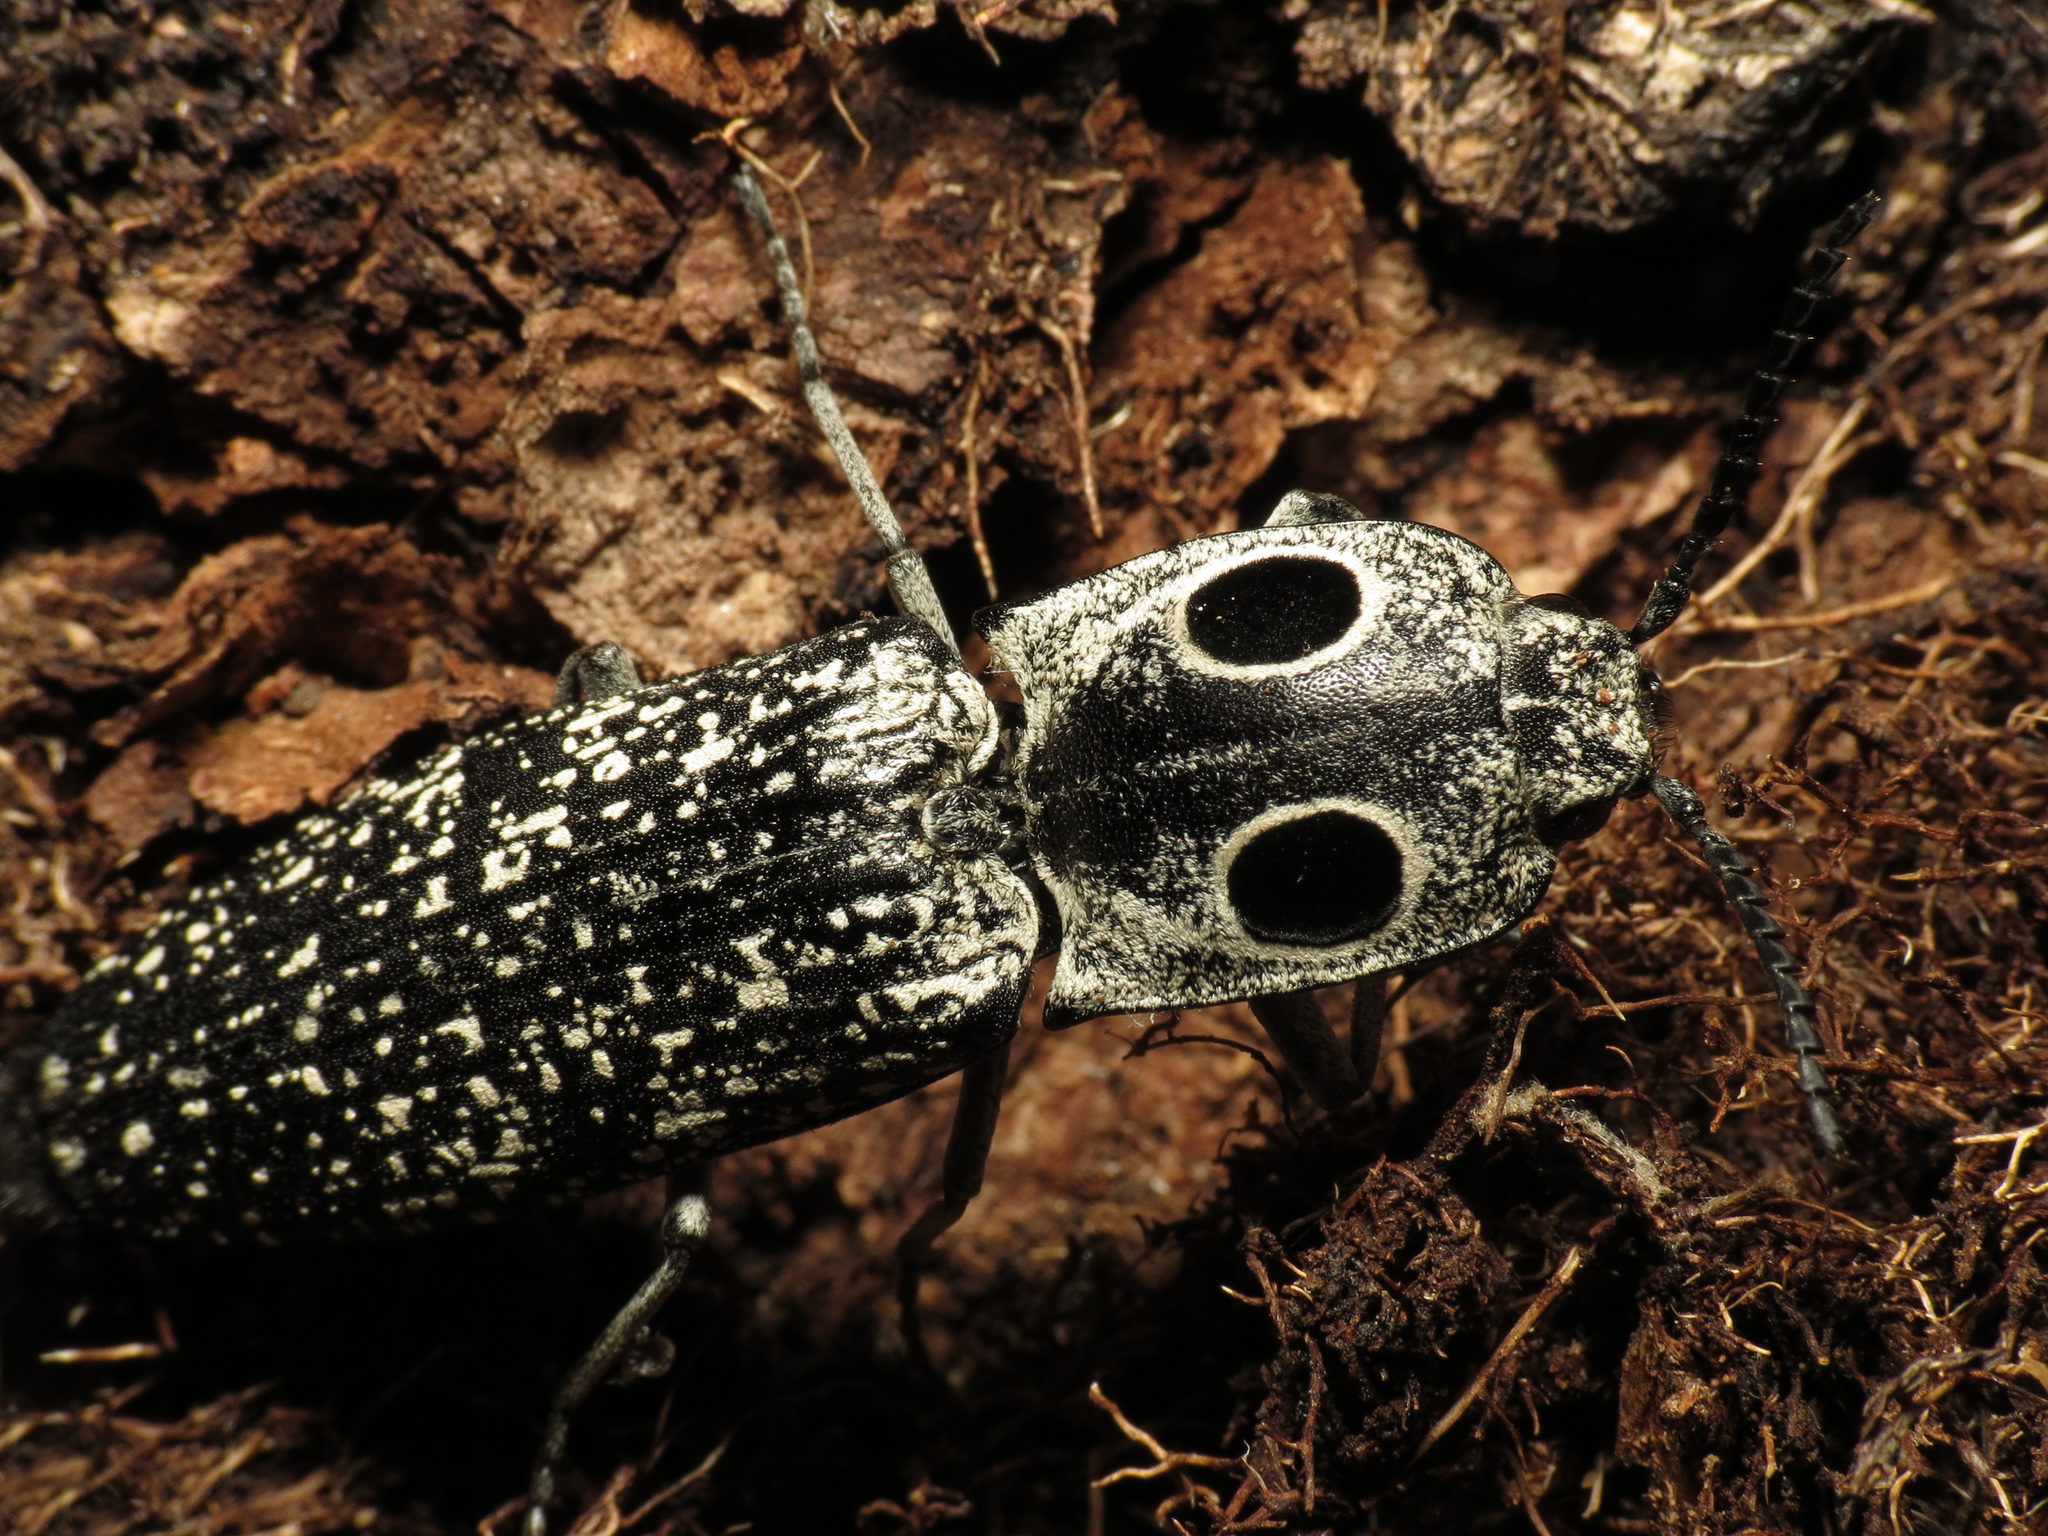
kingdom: Animalia
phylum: Arthropoda
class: Insecta
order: Coleoptera
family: Elateridae
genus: Alaus
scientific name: Alaus oculatus
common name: Eastern eyed click beetle
